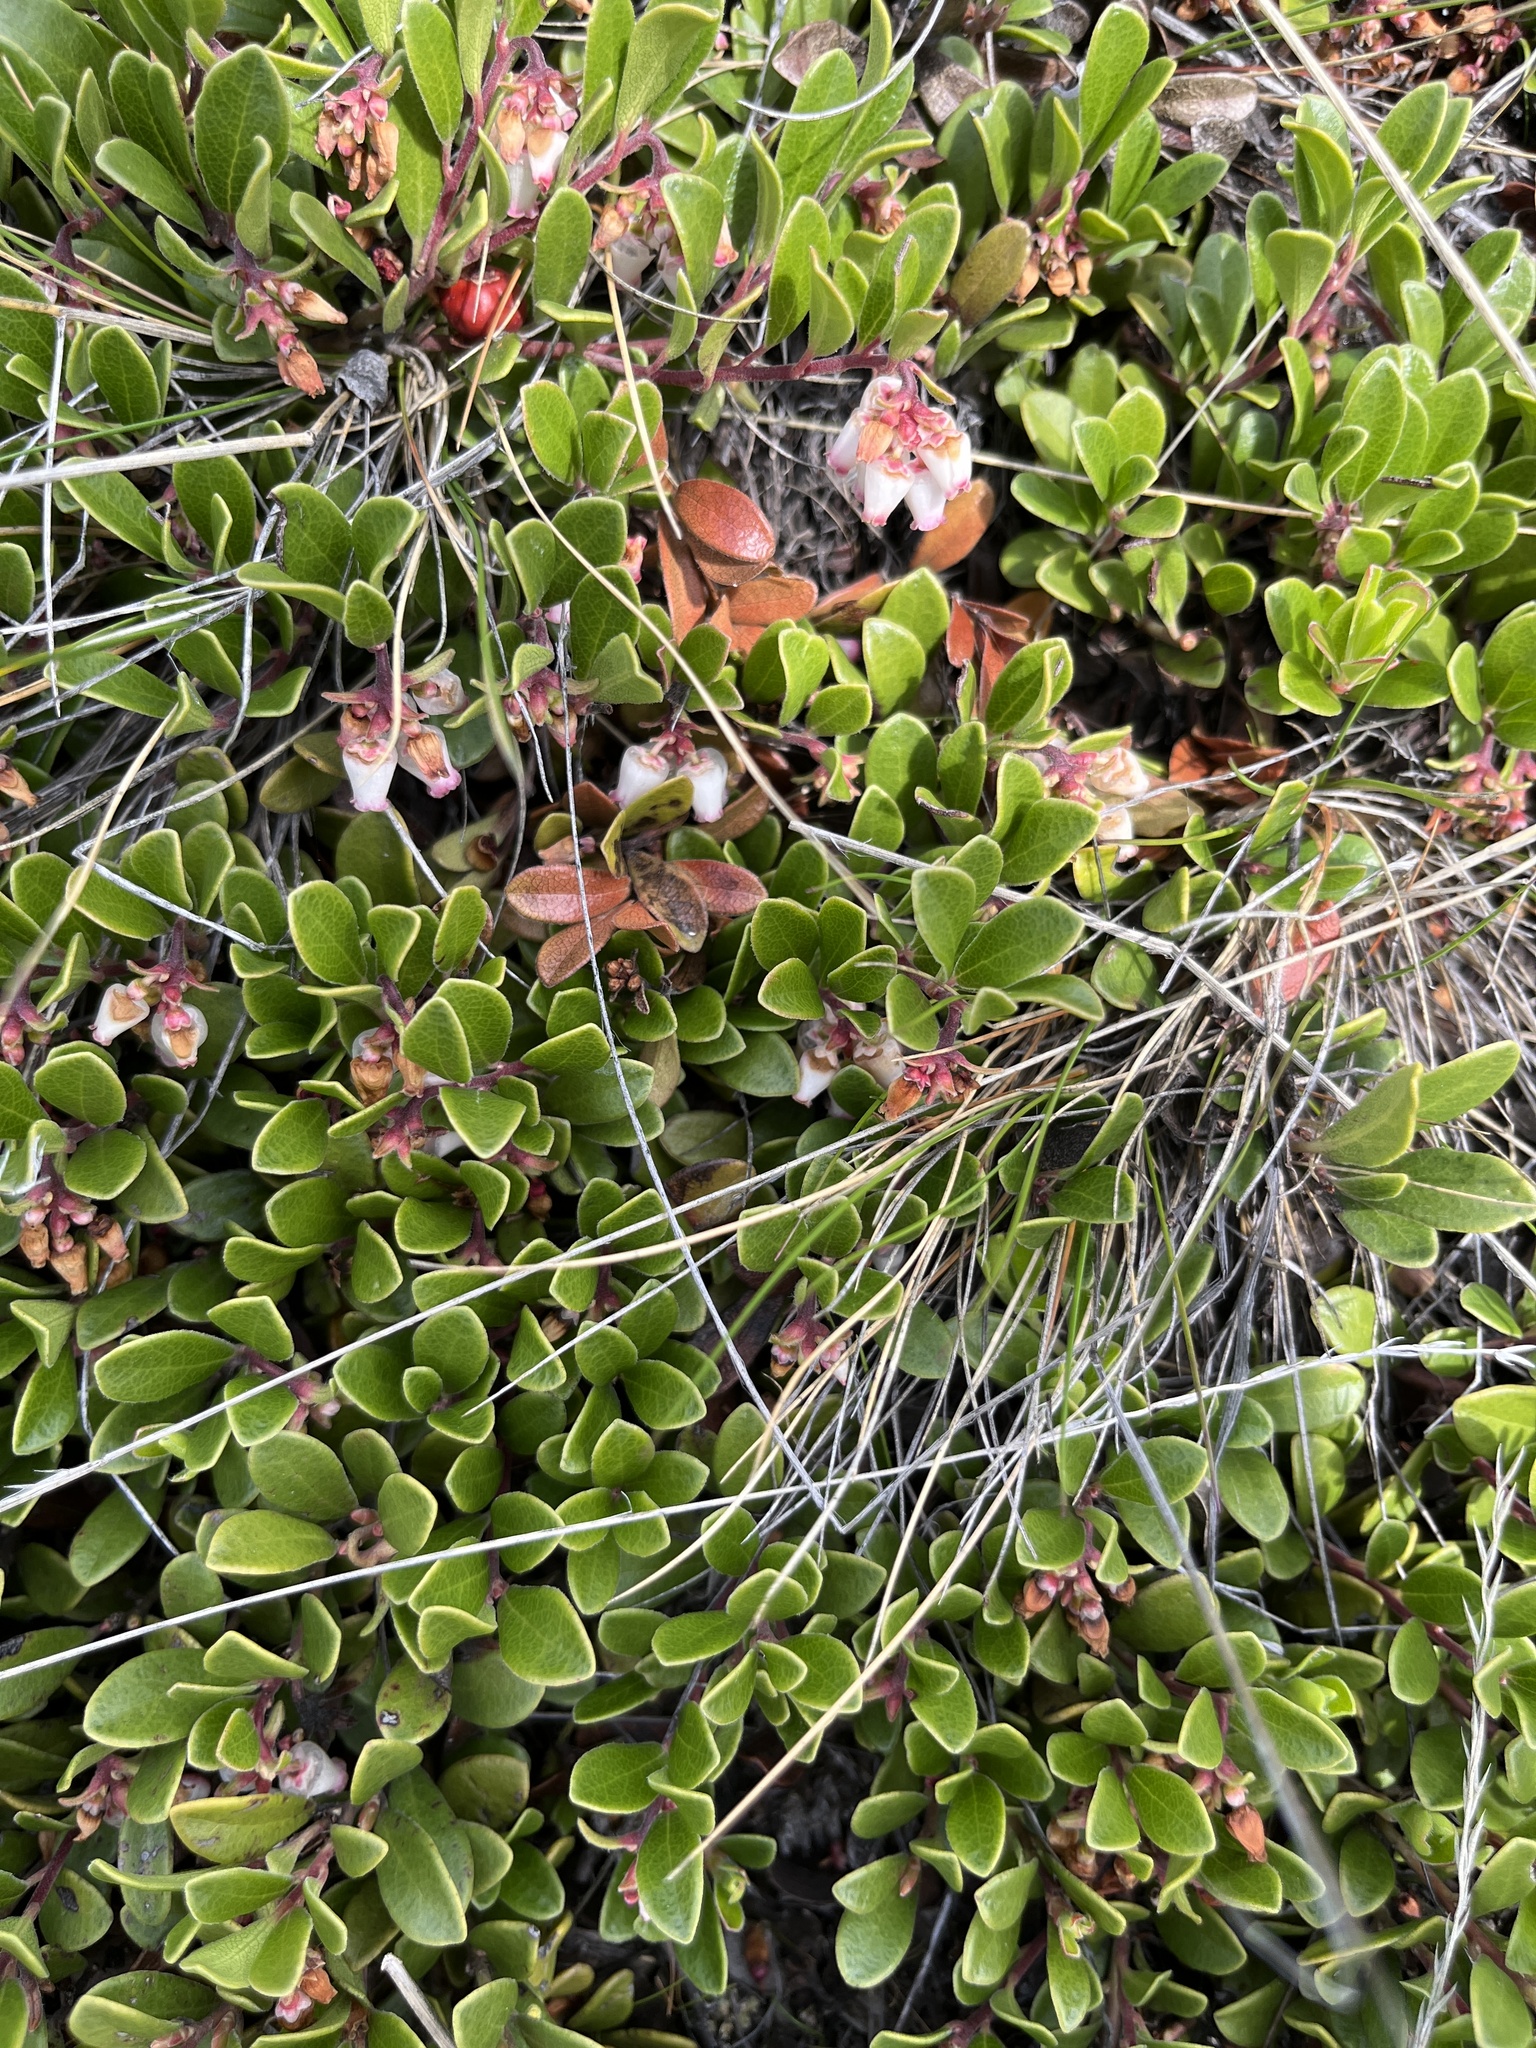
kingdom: Plantae
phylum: Tracheophyta
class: Magnoliopsida
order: Ericales
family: Ericaceae
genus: Arctostaphylos
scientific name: Arctostaphylos uva-ursi
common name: Bearberry
